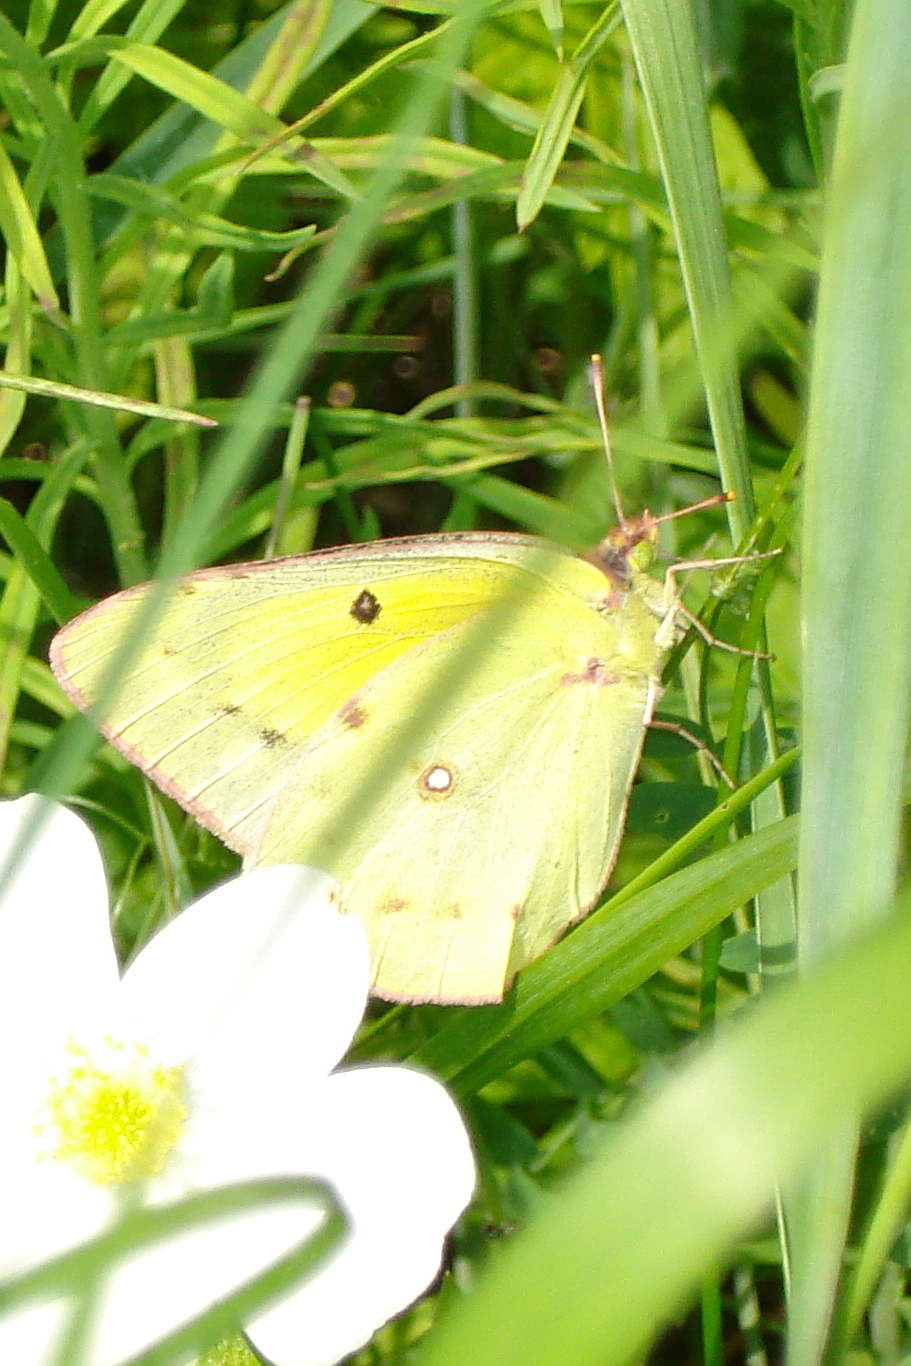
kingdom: Animalia
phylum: Arthropoda
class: Insecta
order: Lepidoptera
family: Pieridae
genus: Colias
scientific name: Colias eurytheme
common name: Alfalfa butterfly
